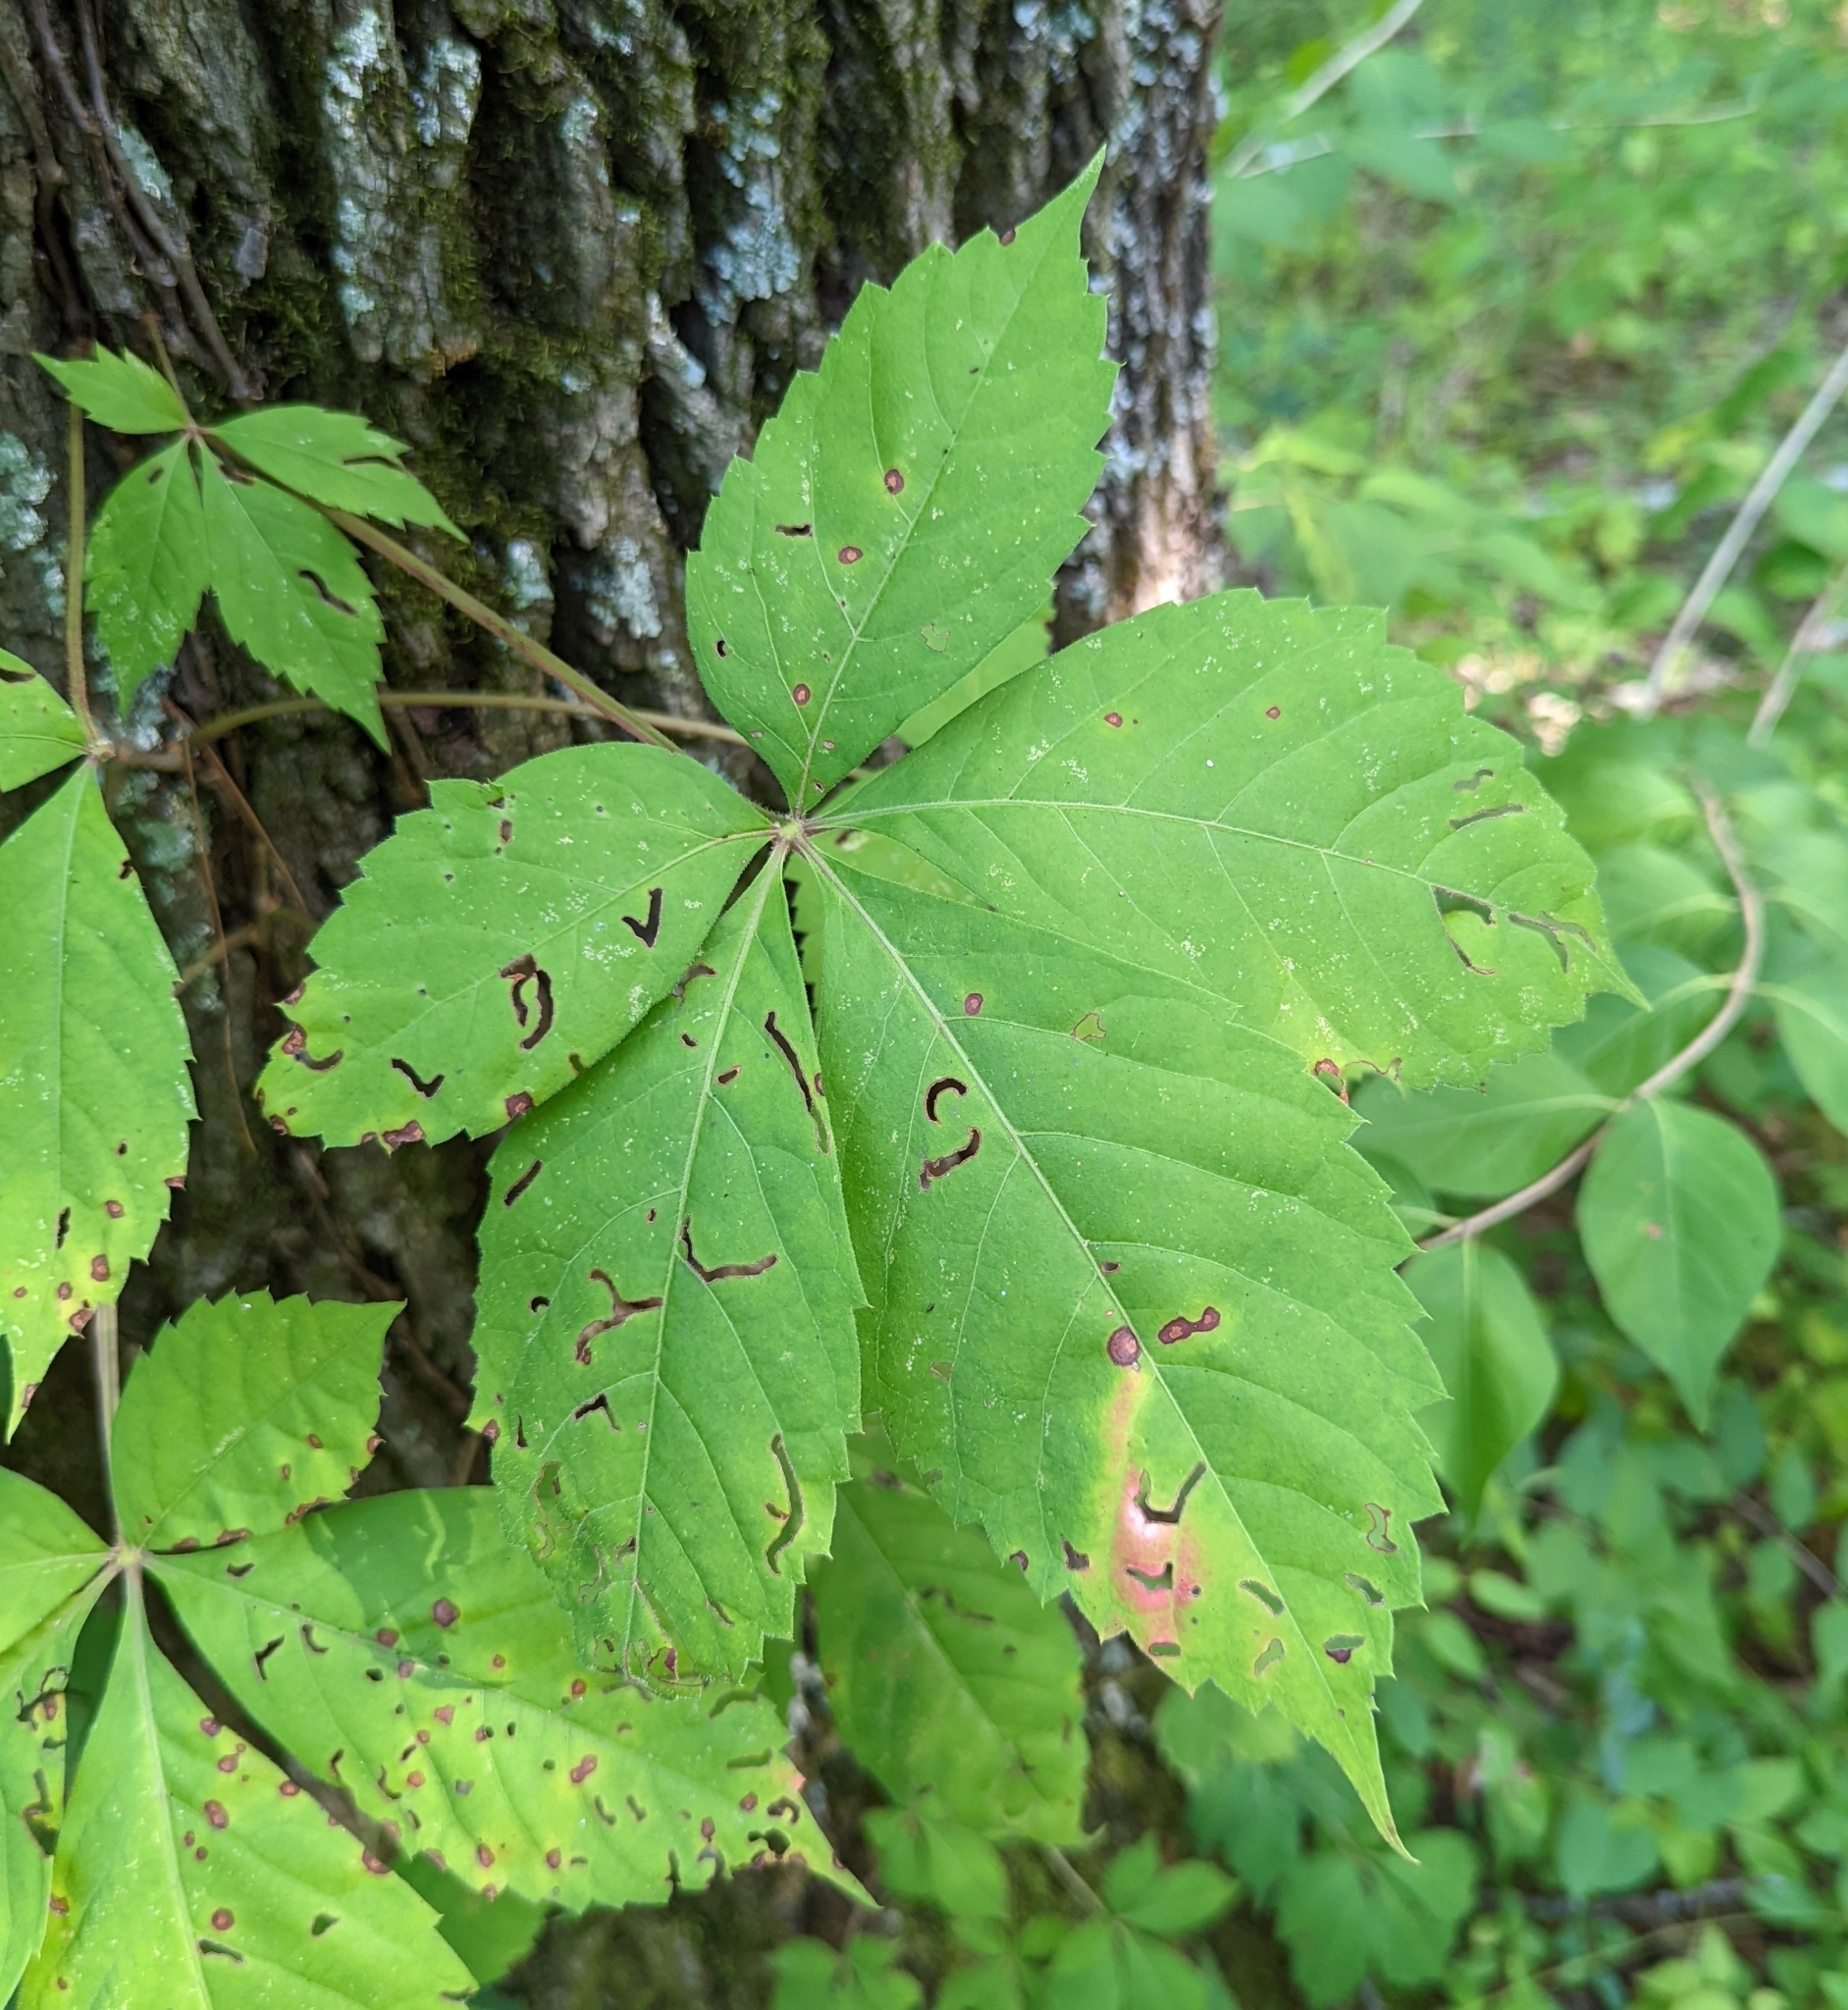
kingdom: Plantae
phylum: Tracheophyta
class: Magnoliopsida
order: Vitales
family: Vitaceae
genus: Parthenocissus
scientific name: Parthenocissus quinquefolia
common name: Virginia-creeper
